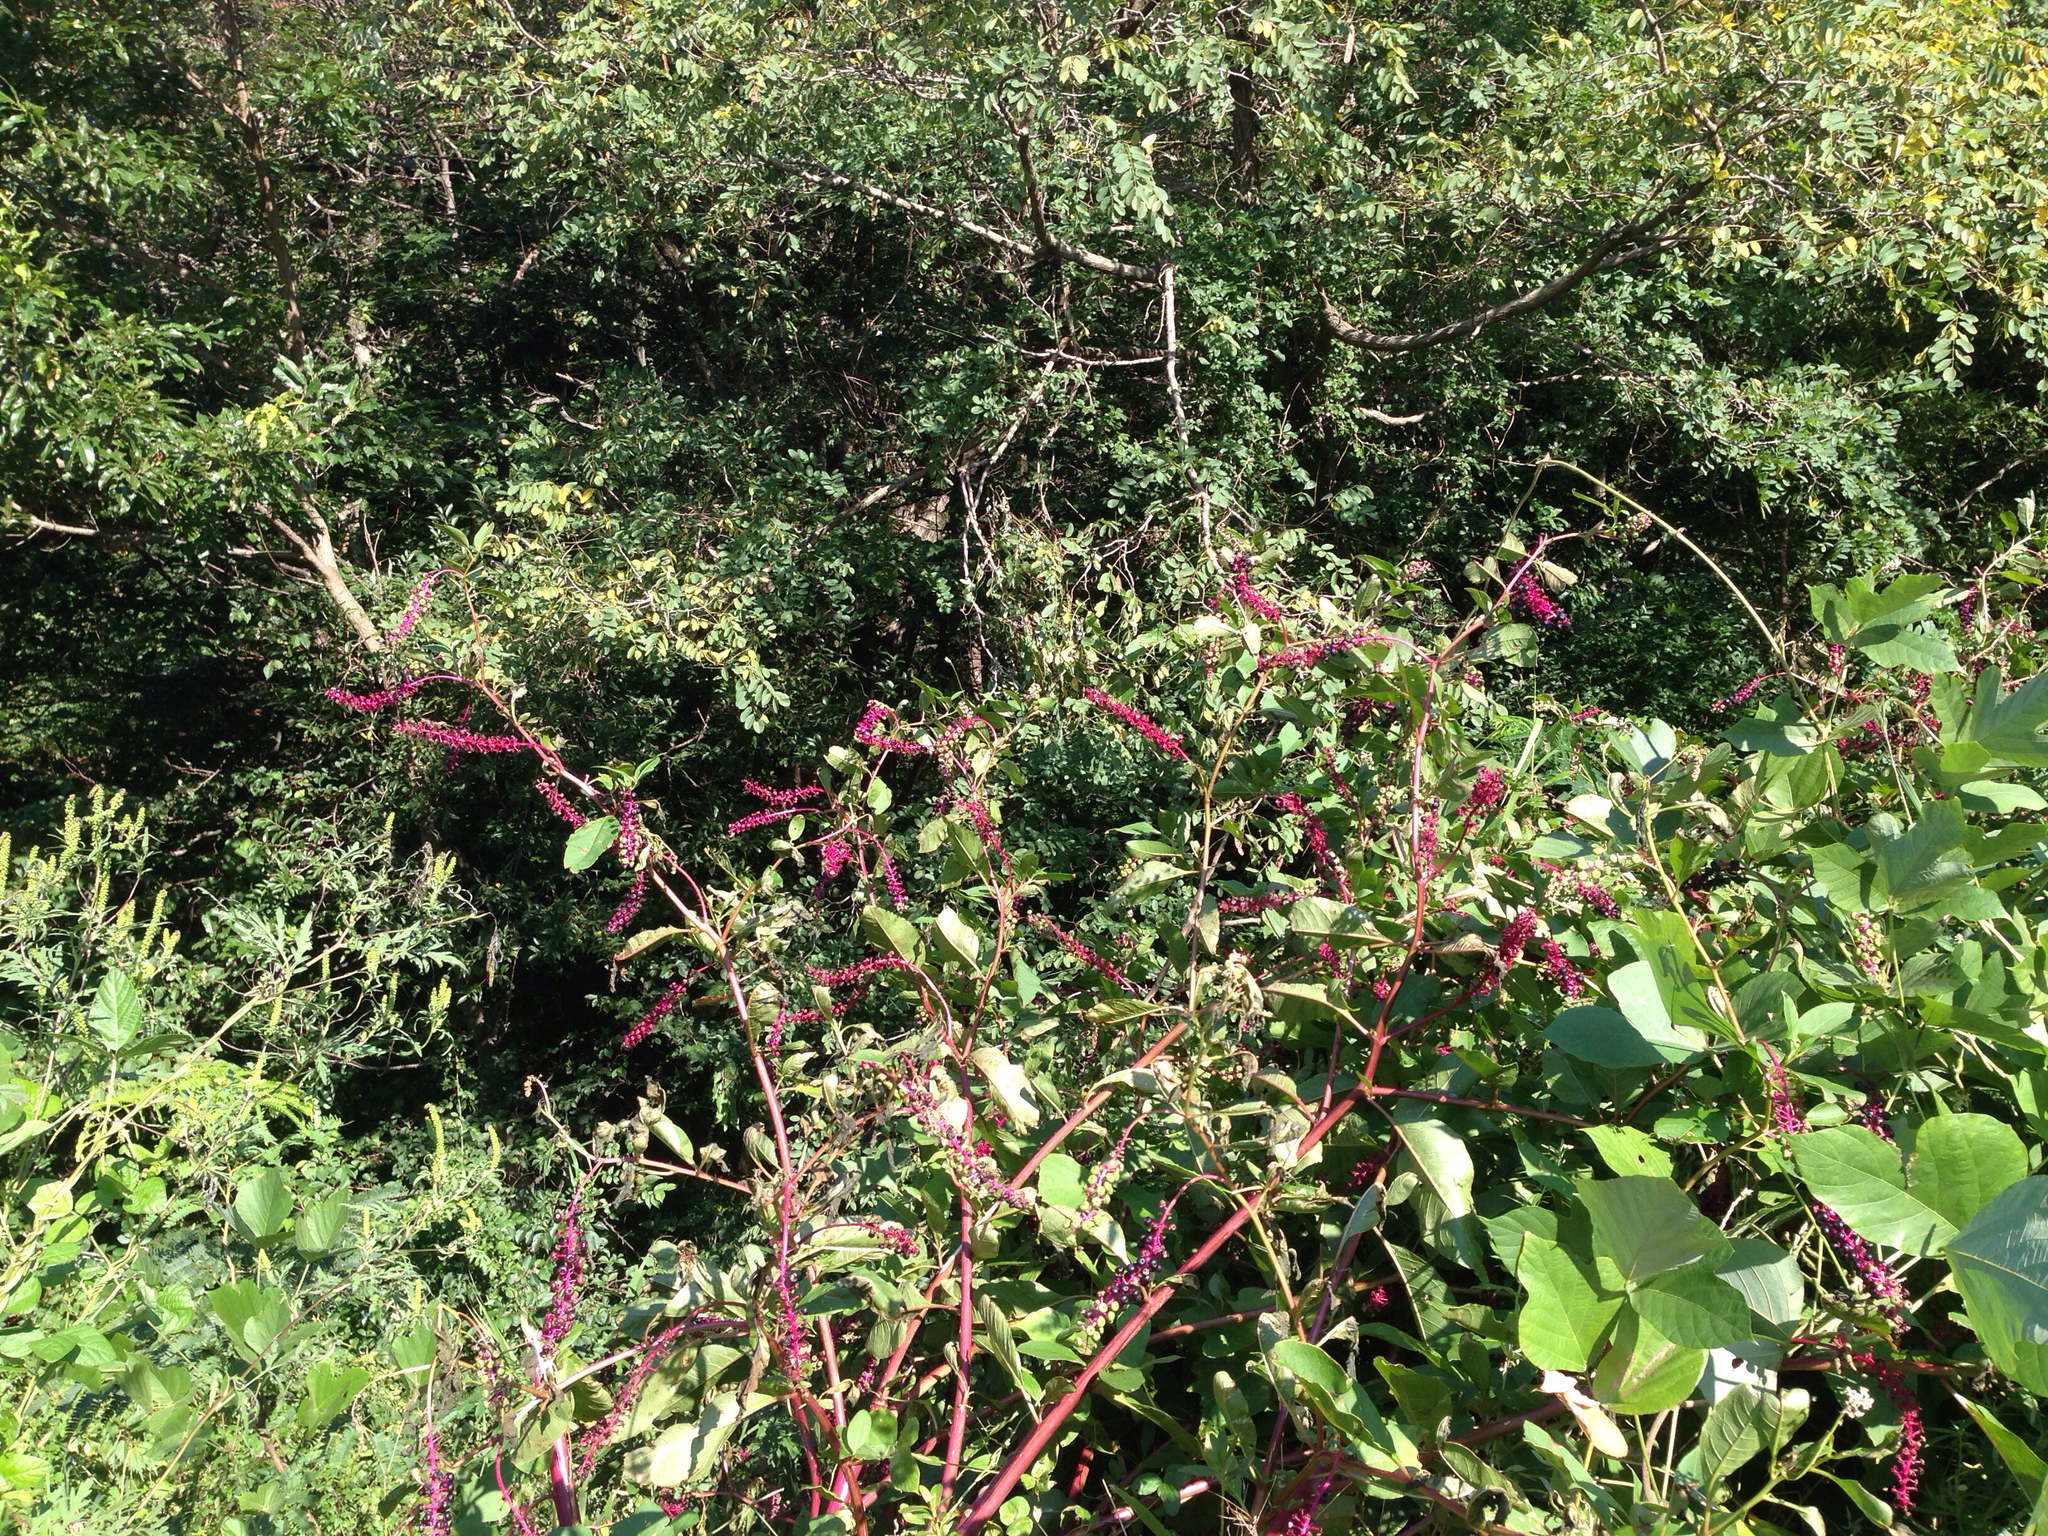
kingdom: Plantae
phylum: Tracheophyta
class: Magnoliopsida
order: Caryophyllales
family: Phytolaccaceae
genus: Phytolacca
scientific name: Phytolacca americana
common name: American pokeweed
